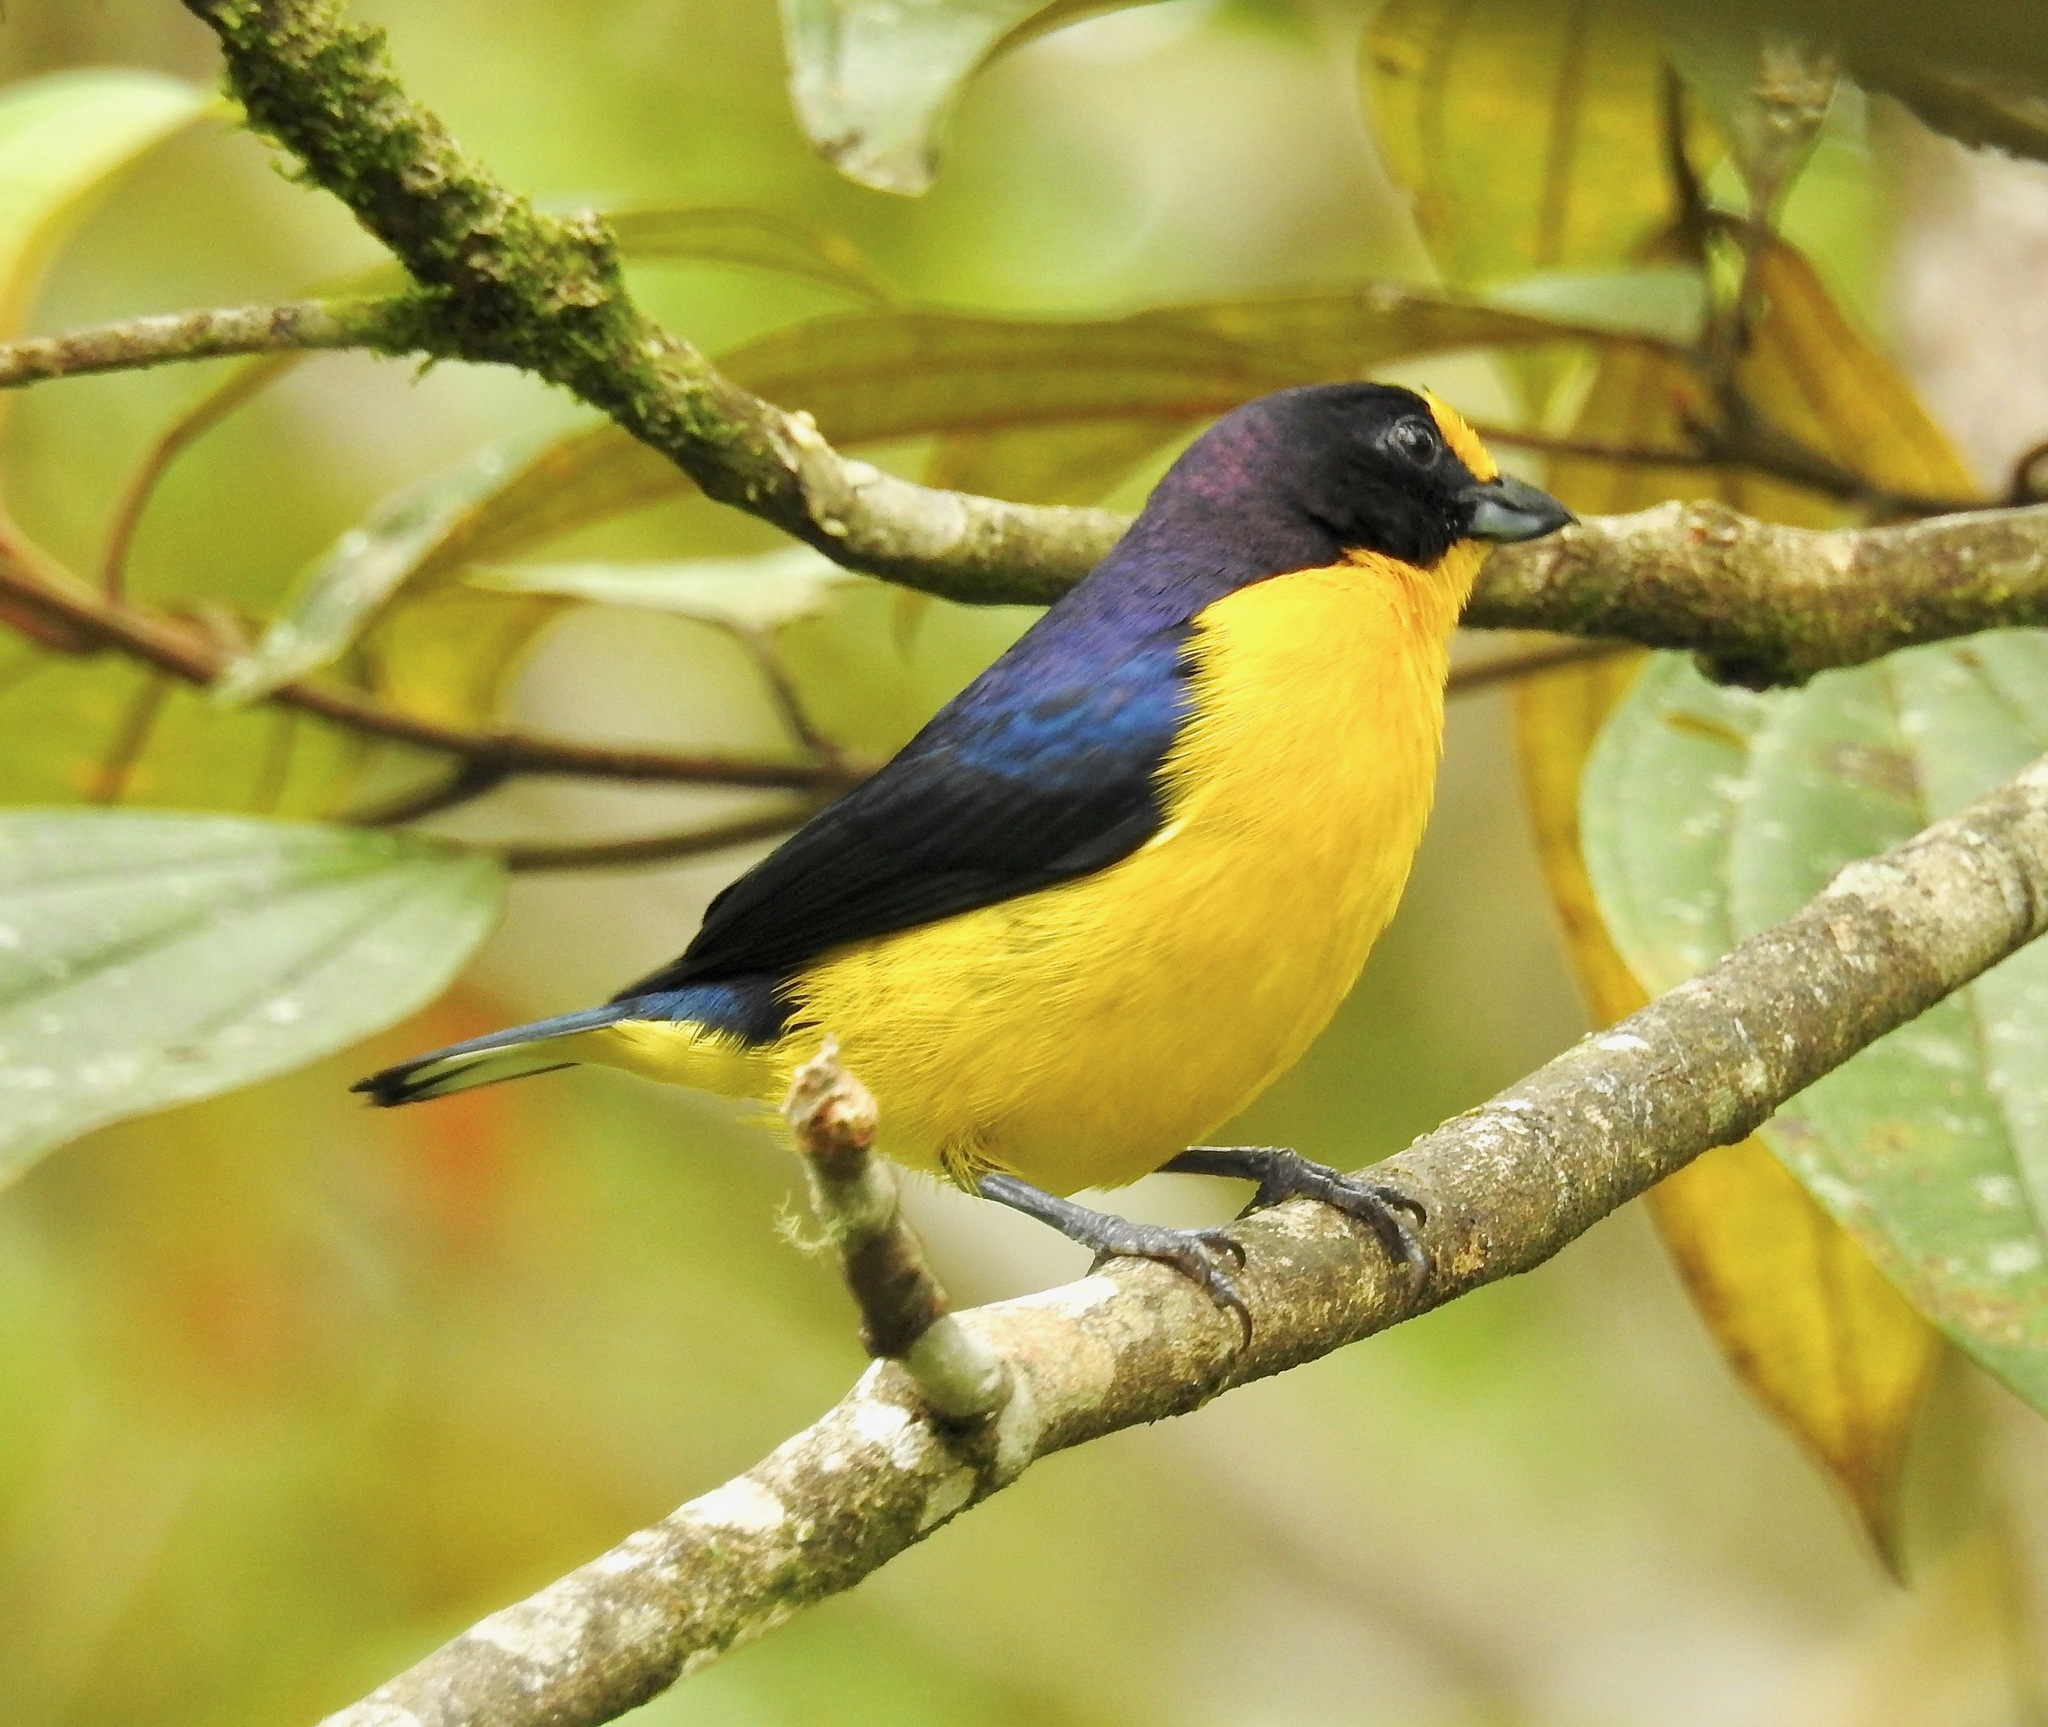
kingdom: Animalia
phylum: Chordata
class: Aves
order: Passeriformes
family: Fringillidae
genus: Euphonia
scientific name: Euphonia violacea
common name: Violaceous euphonia
